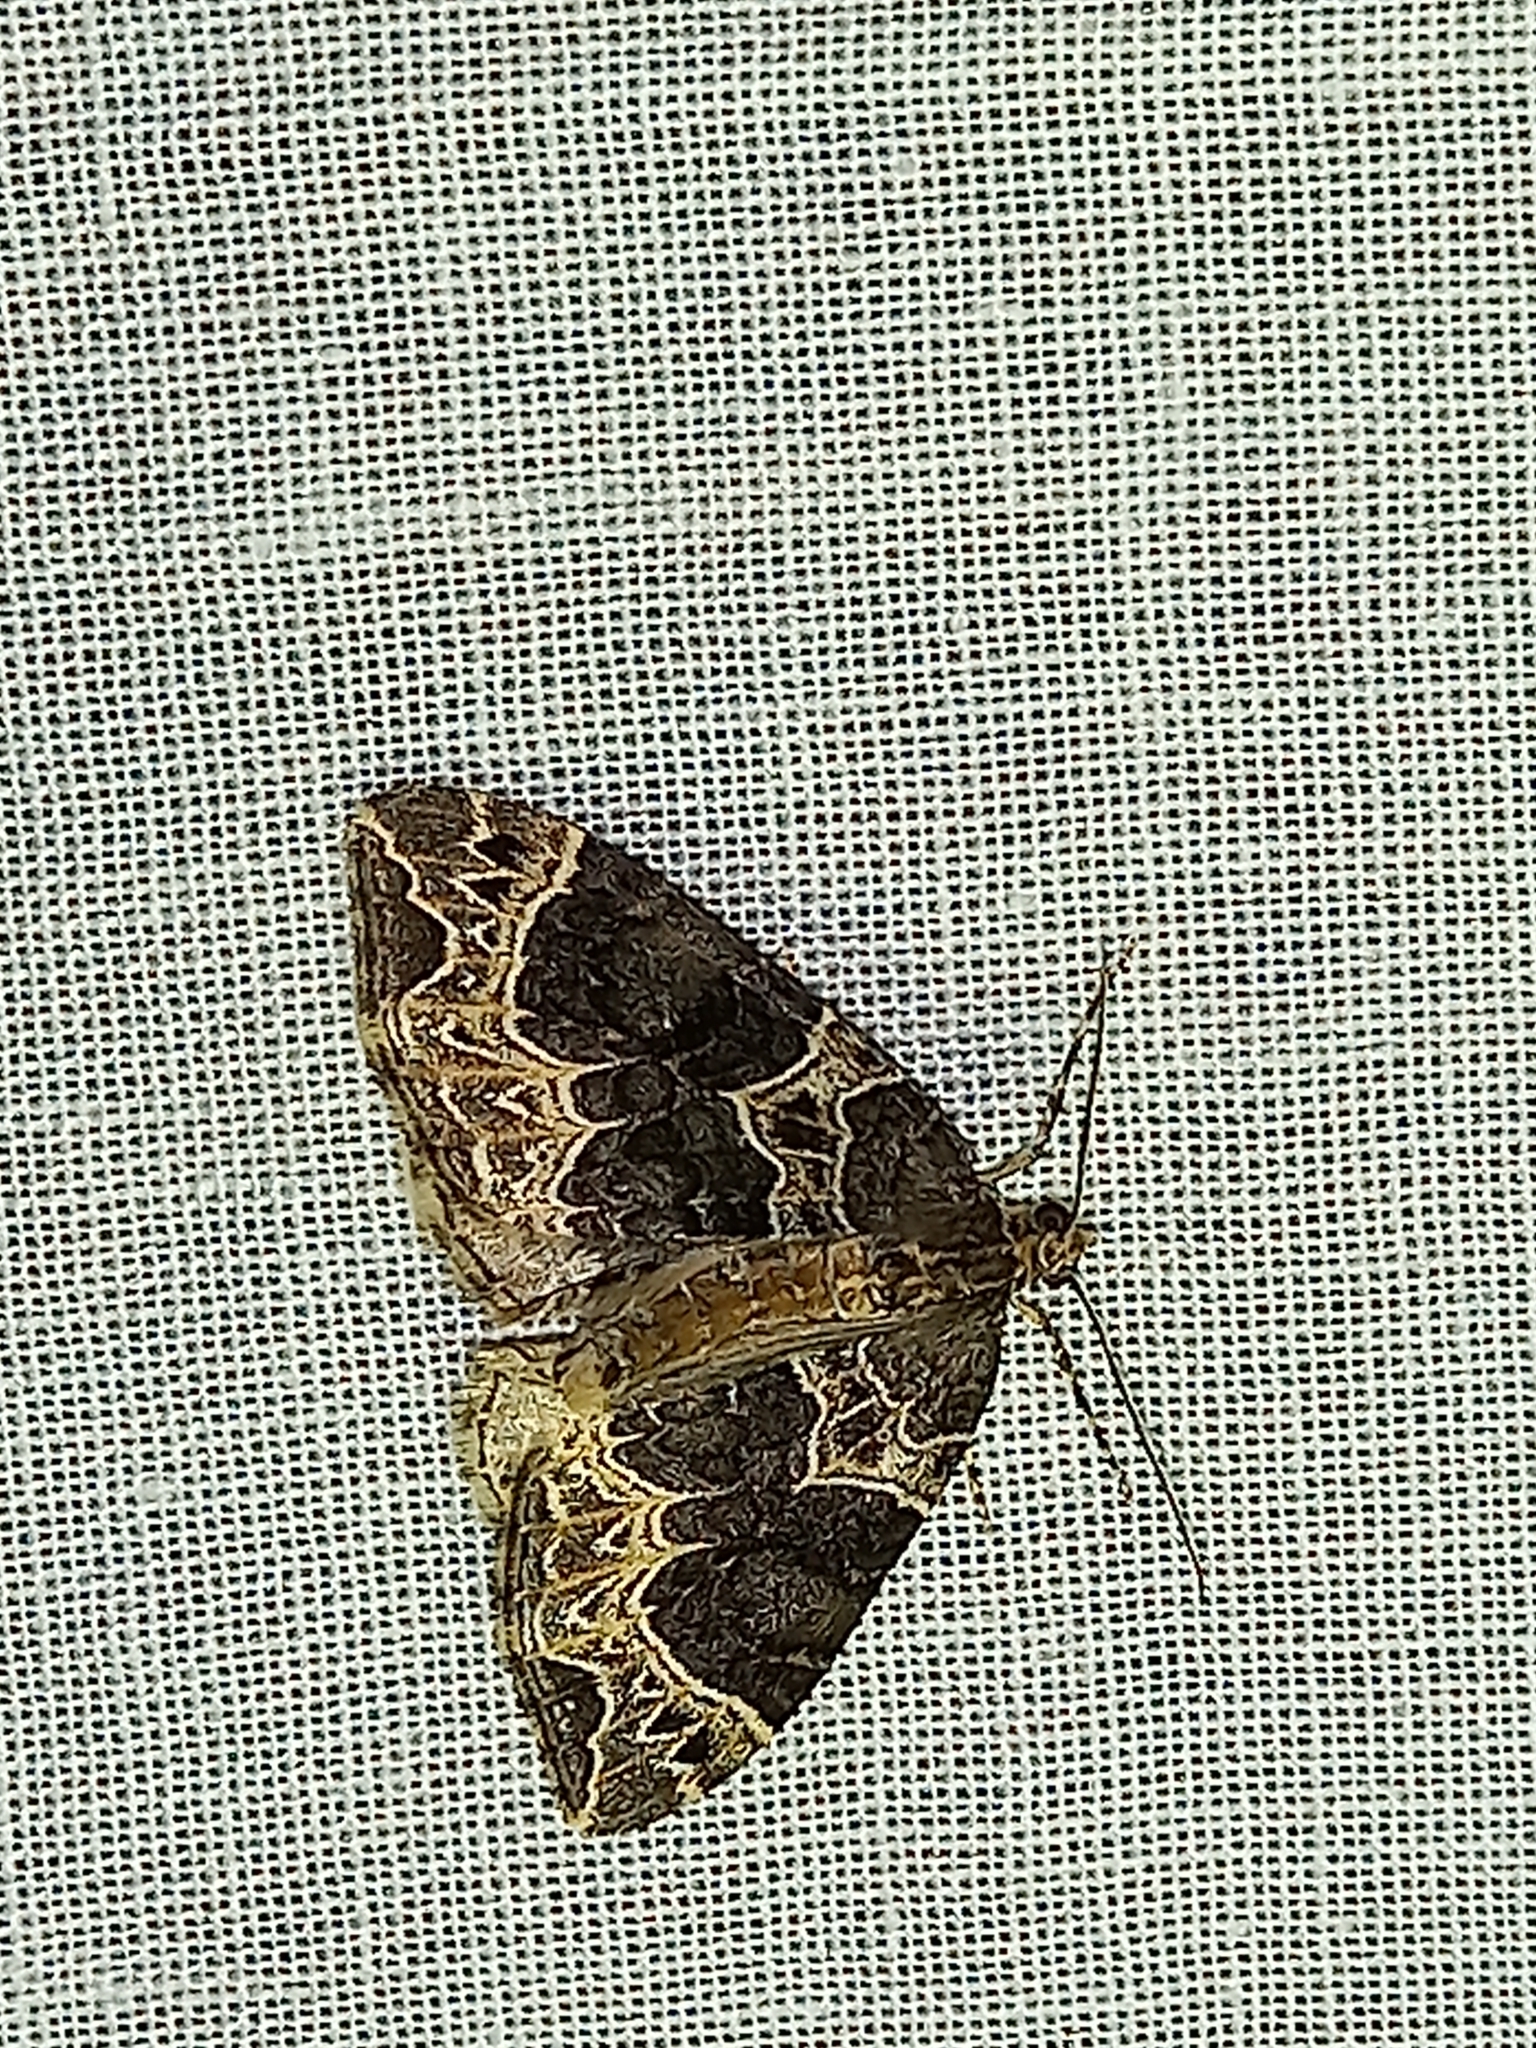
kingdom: Animalia
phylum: Arthropoda
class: Insecta
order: Lepidoptera
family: Geometridae
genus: Ecliptopera
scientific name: Ecliptopera silaceata
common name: Small phoenix
